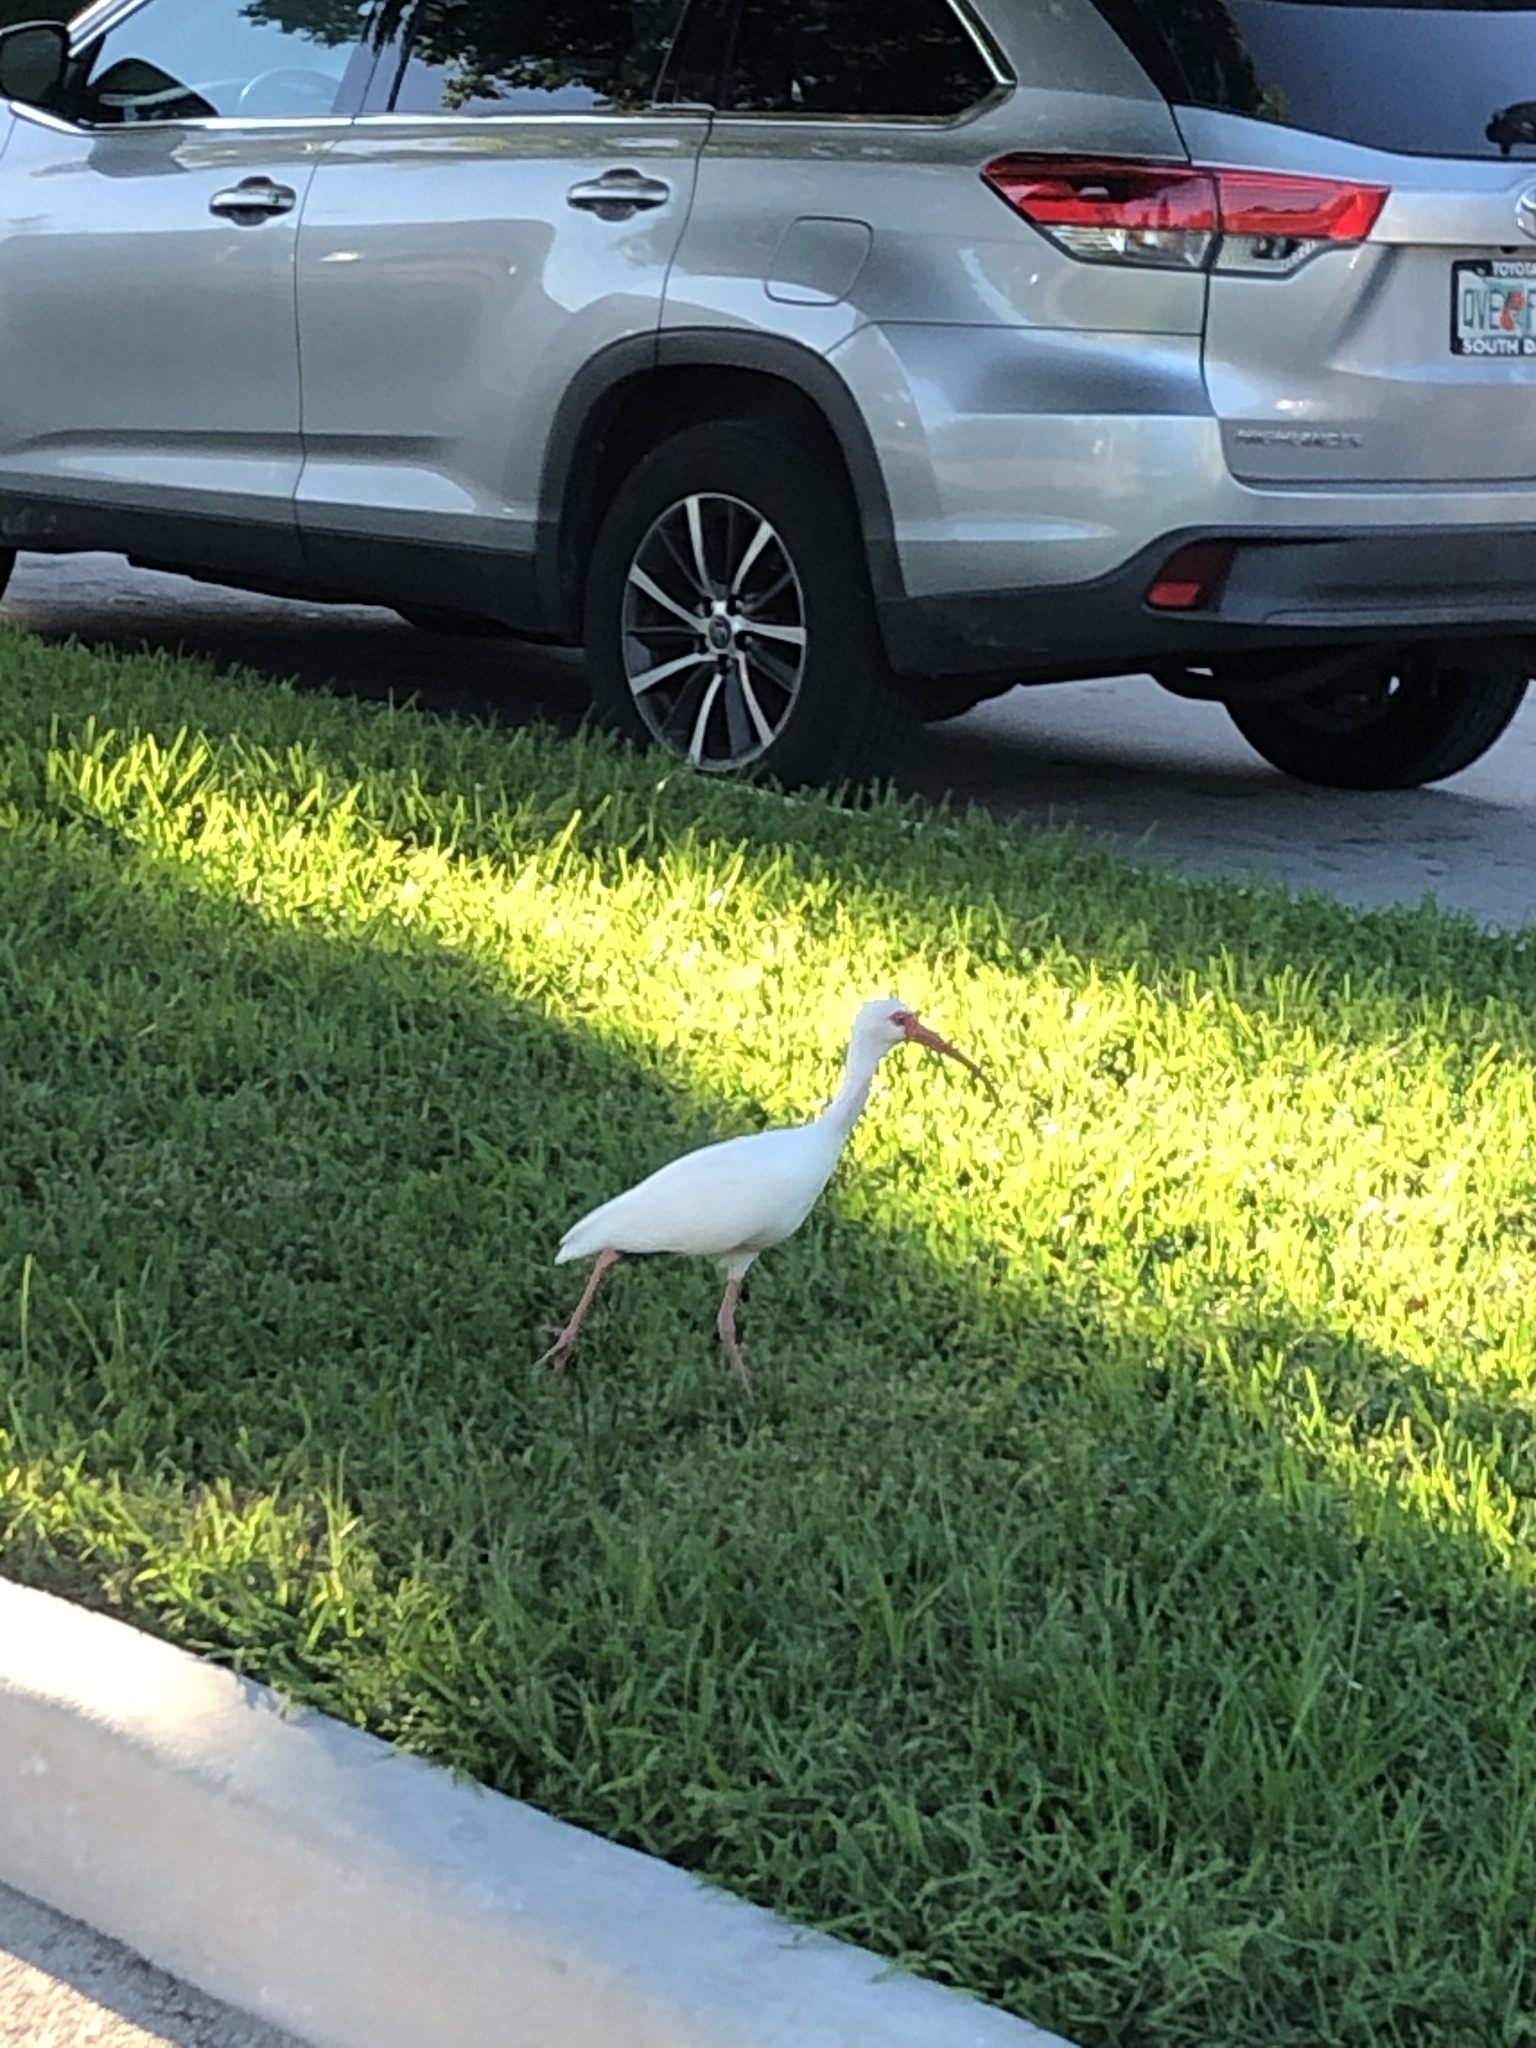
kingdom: Animalia
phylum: Chordata
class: Aves
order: Pelecaniformes
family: Threskiornithidae
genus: Eudocimus
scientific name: Eudocimus albus
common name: White ibis
